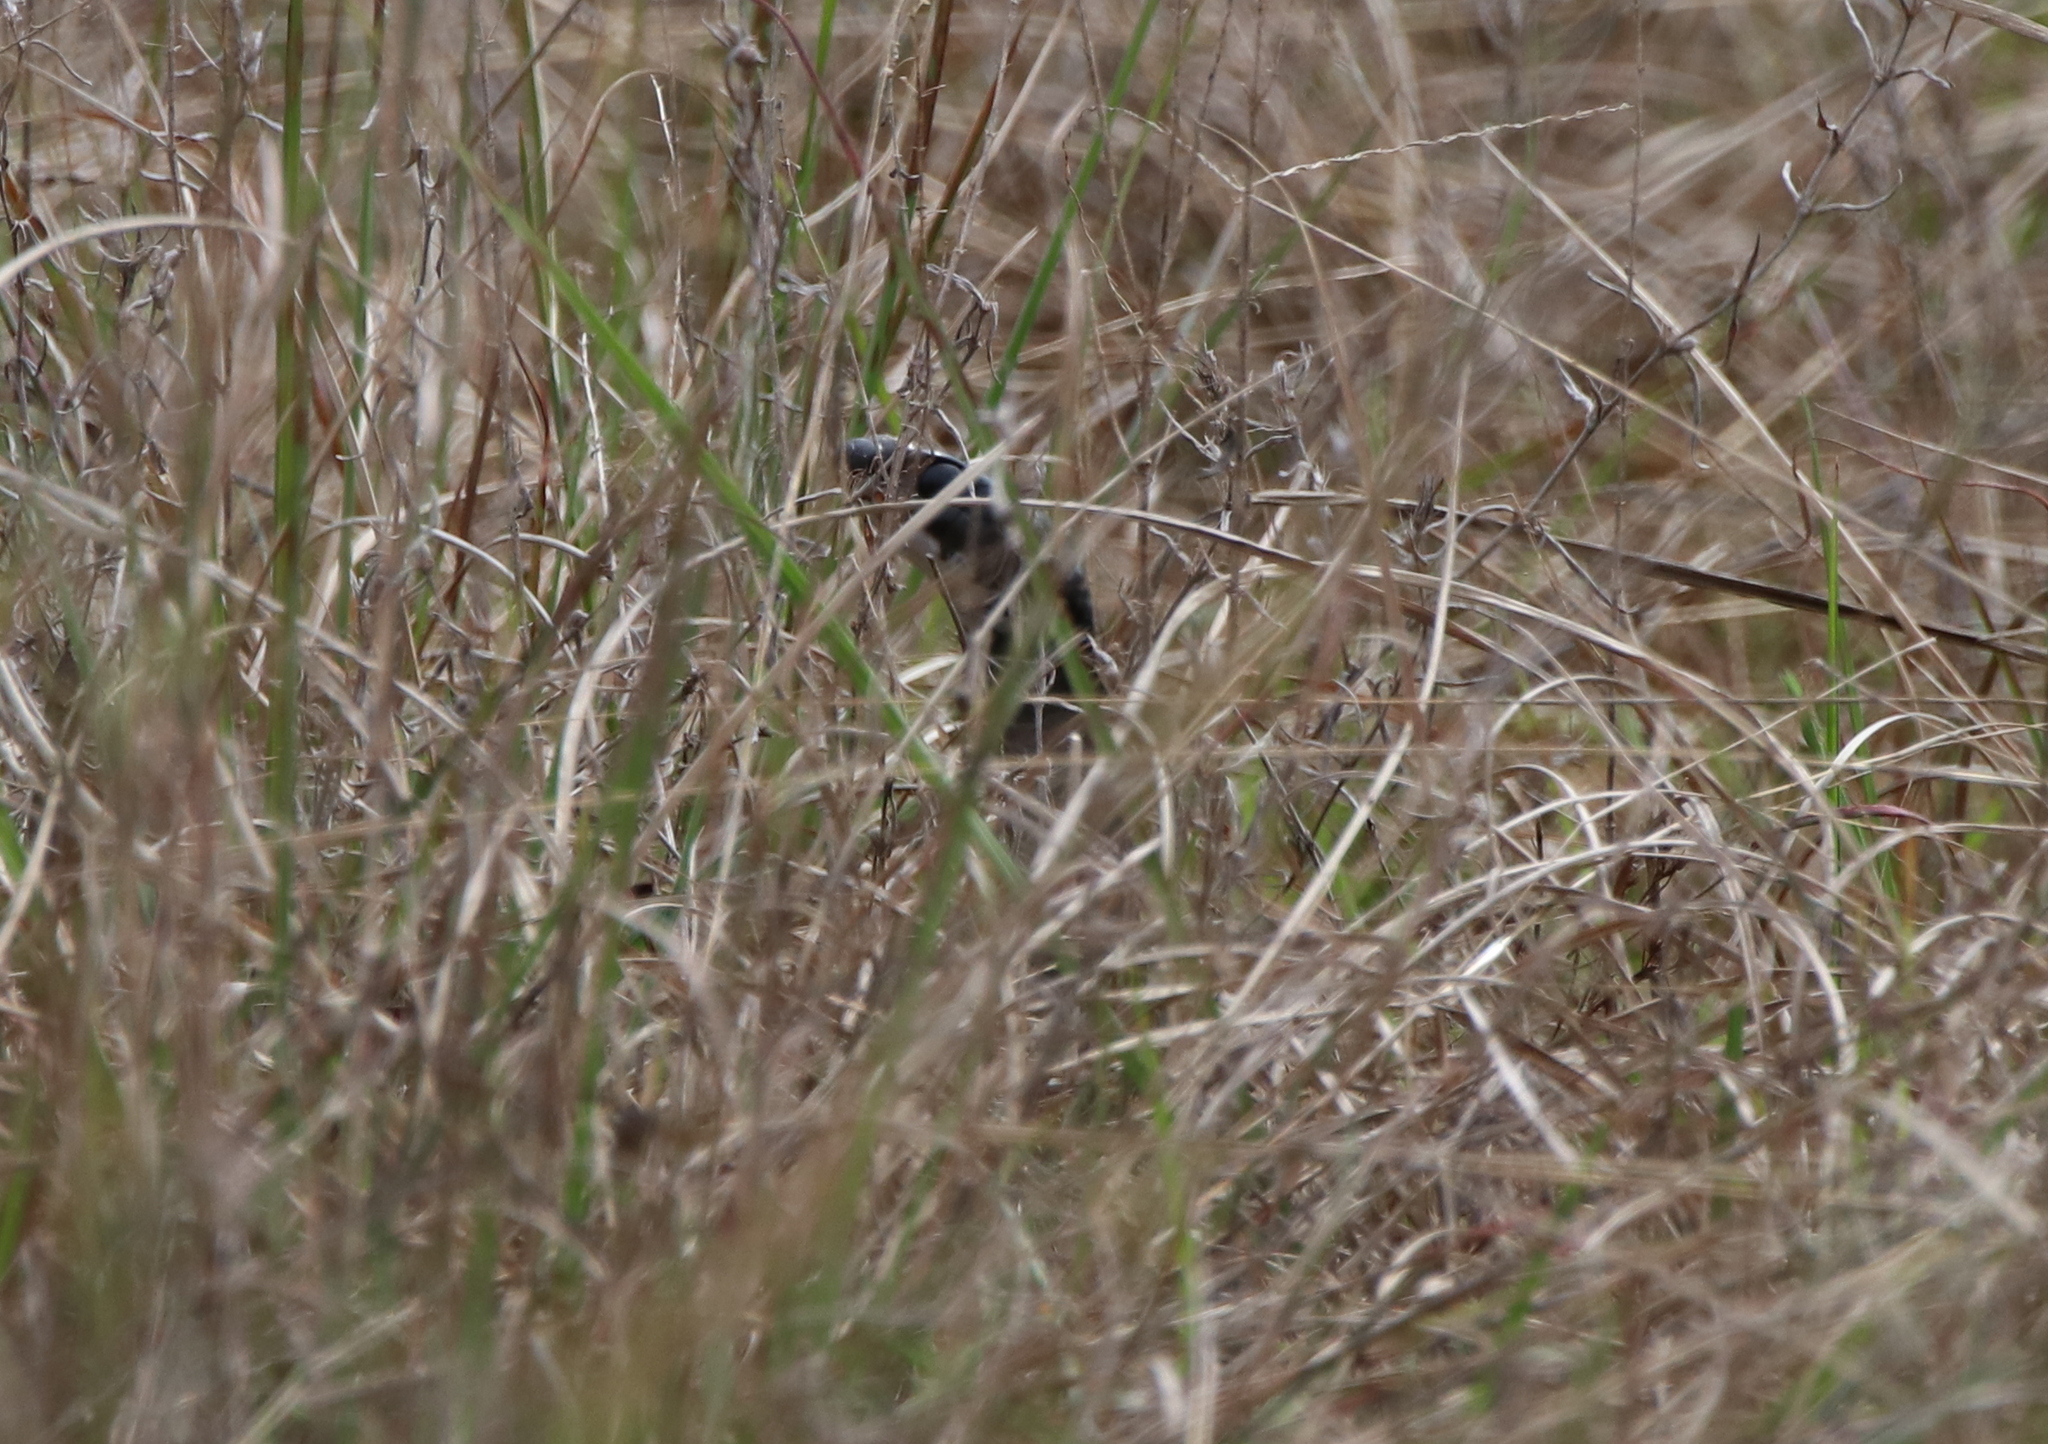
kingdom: Animalia
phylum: Chordata
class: Squamata
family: Colubridae
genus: Coluber
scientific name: Coluber constrictor
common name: Eastern racer
